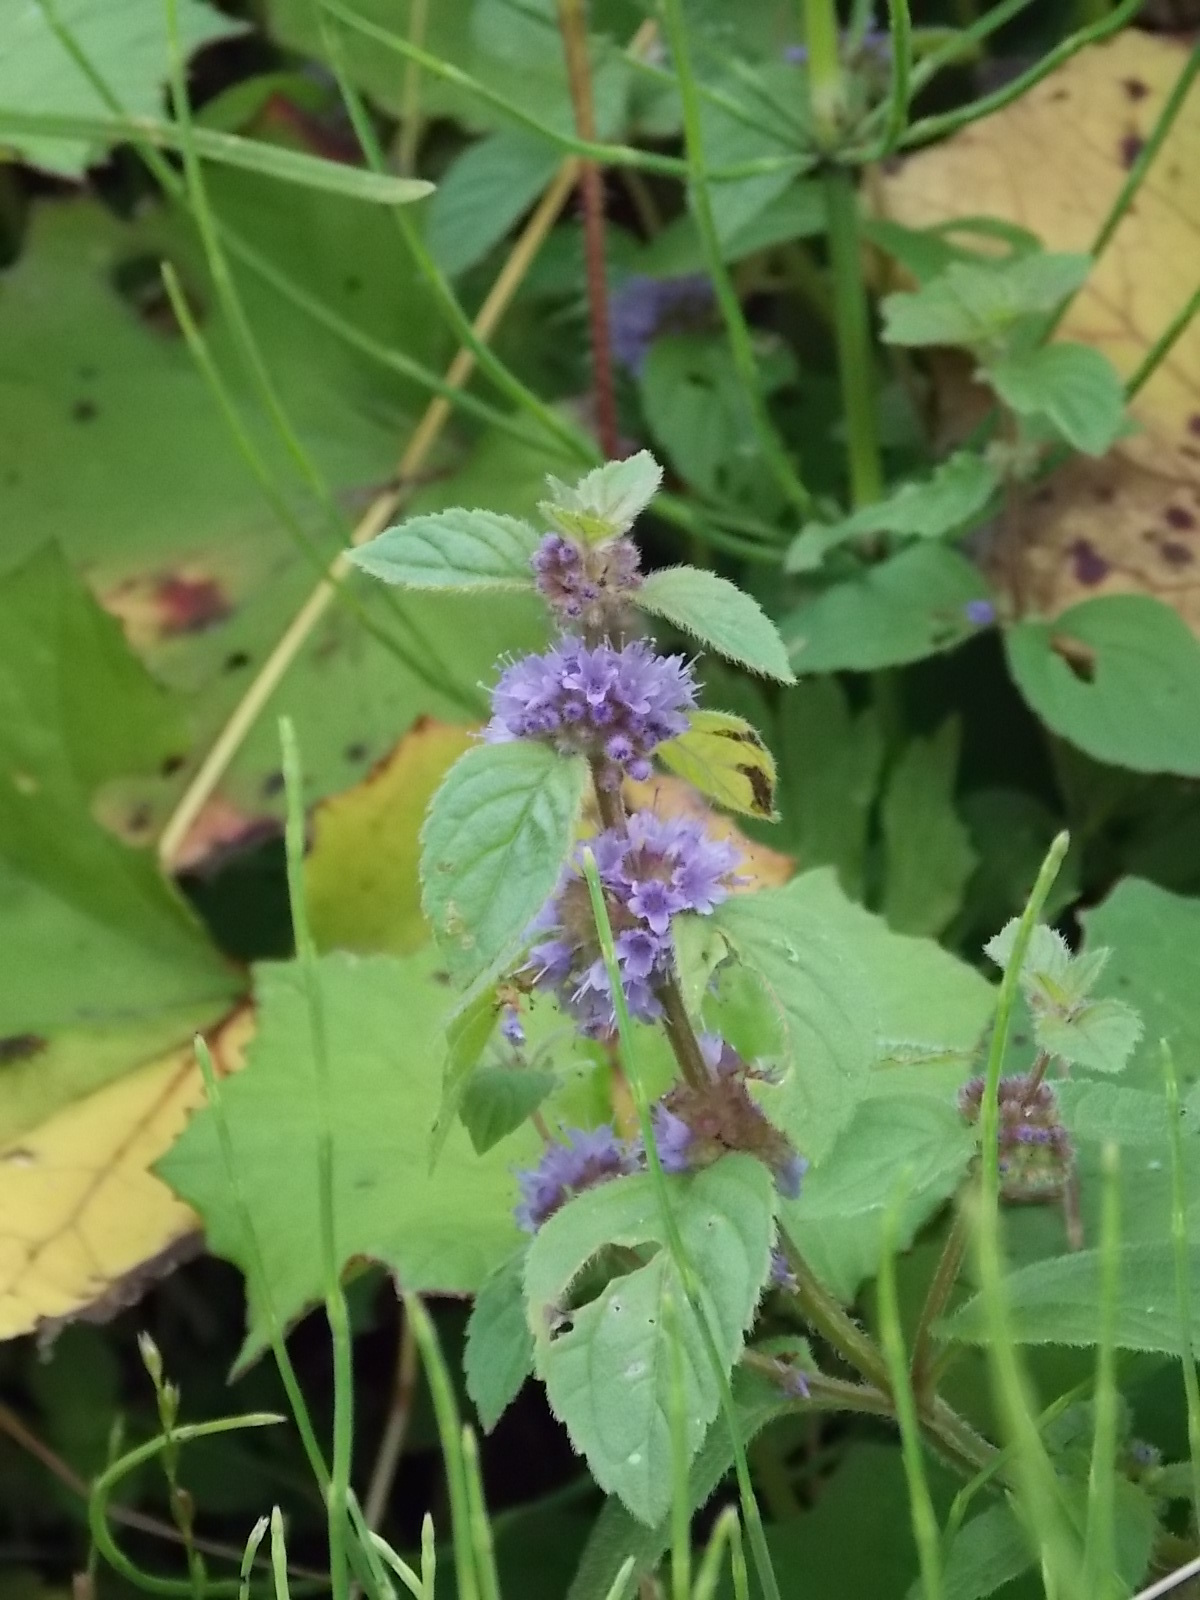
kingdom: Plantae
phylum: Tracheophyta
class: Magnoliopsida
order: Lamiales
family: Lamiaceae
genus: Mentha
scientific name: Mentha arvensis
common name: Corn mint
